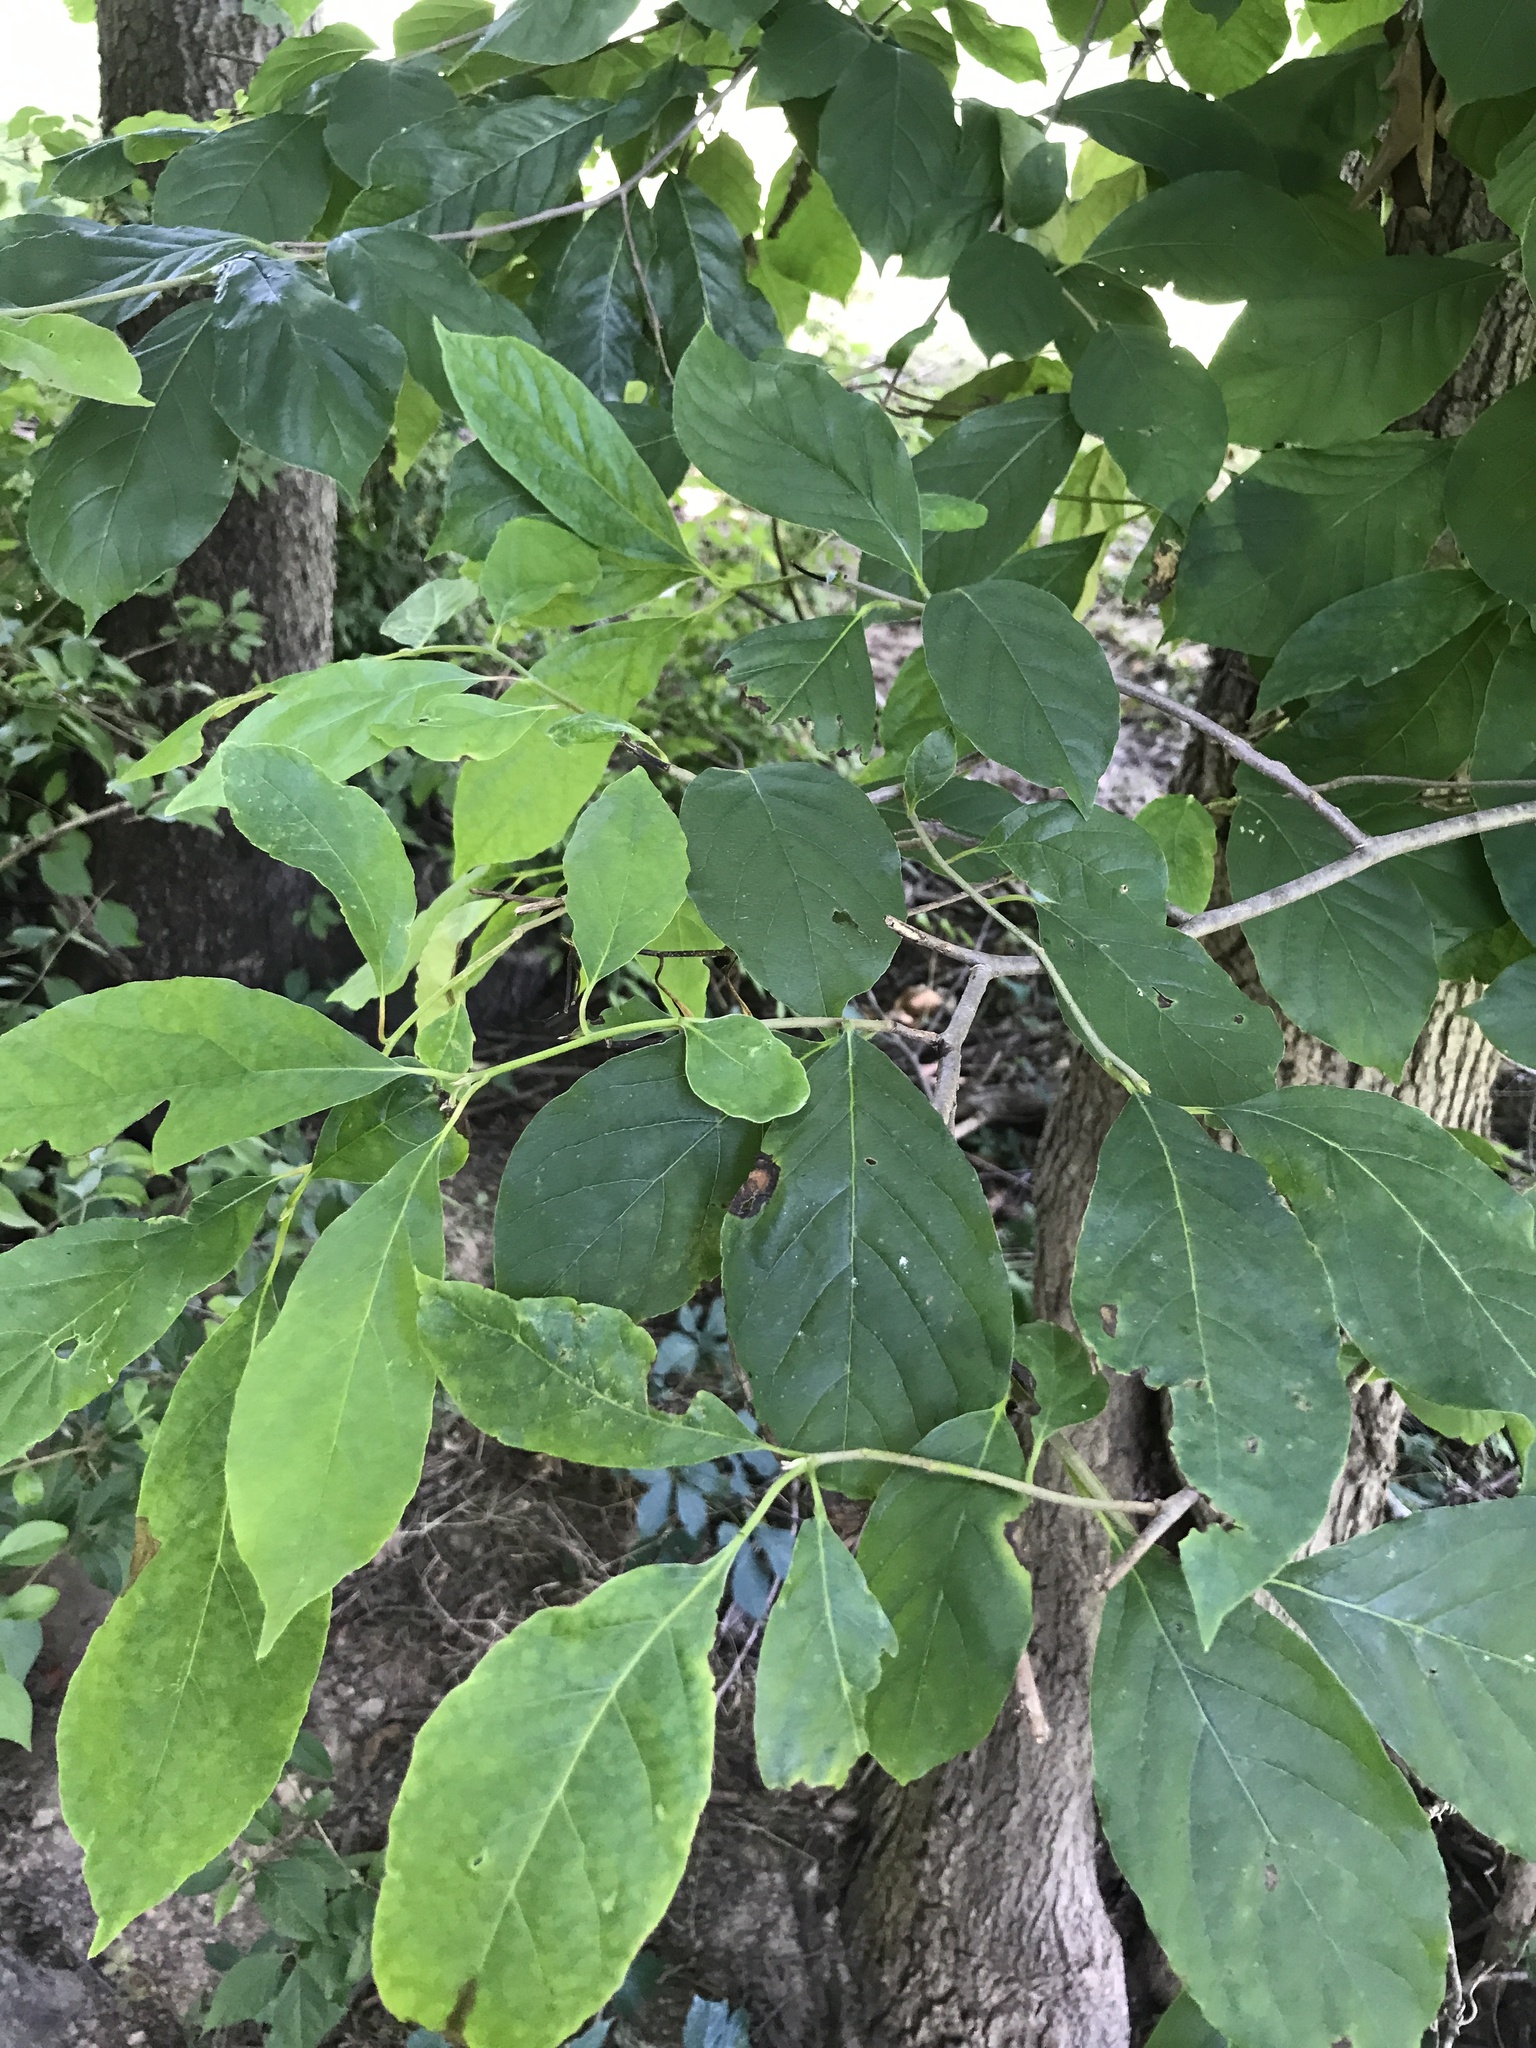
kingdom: Plantae
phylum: Tracheophyta
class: Magnoliopsida
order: Cornales
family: Nyssaceae
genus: Nyssa
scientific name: Nyssa sylvatica
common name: Black tupelo
